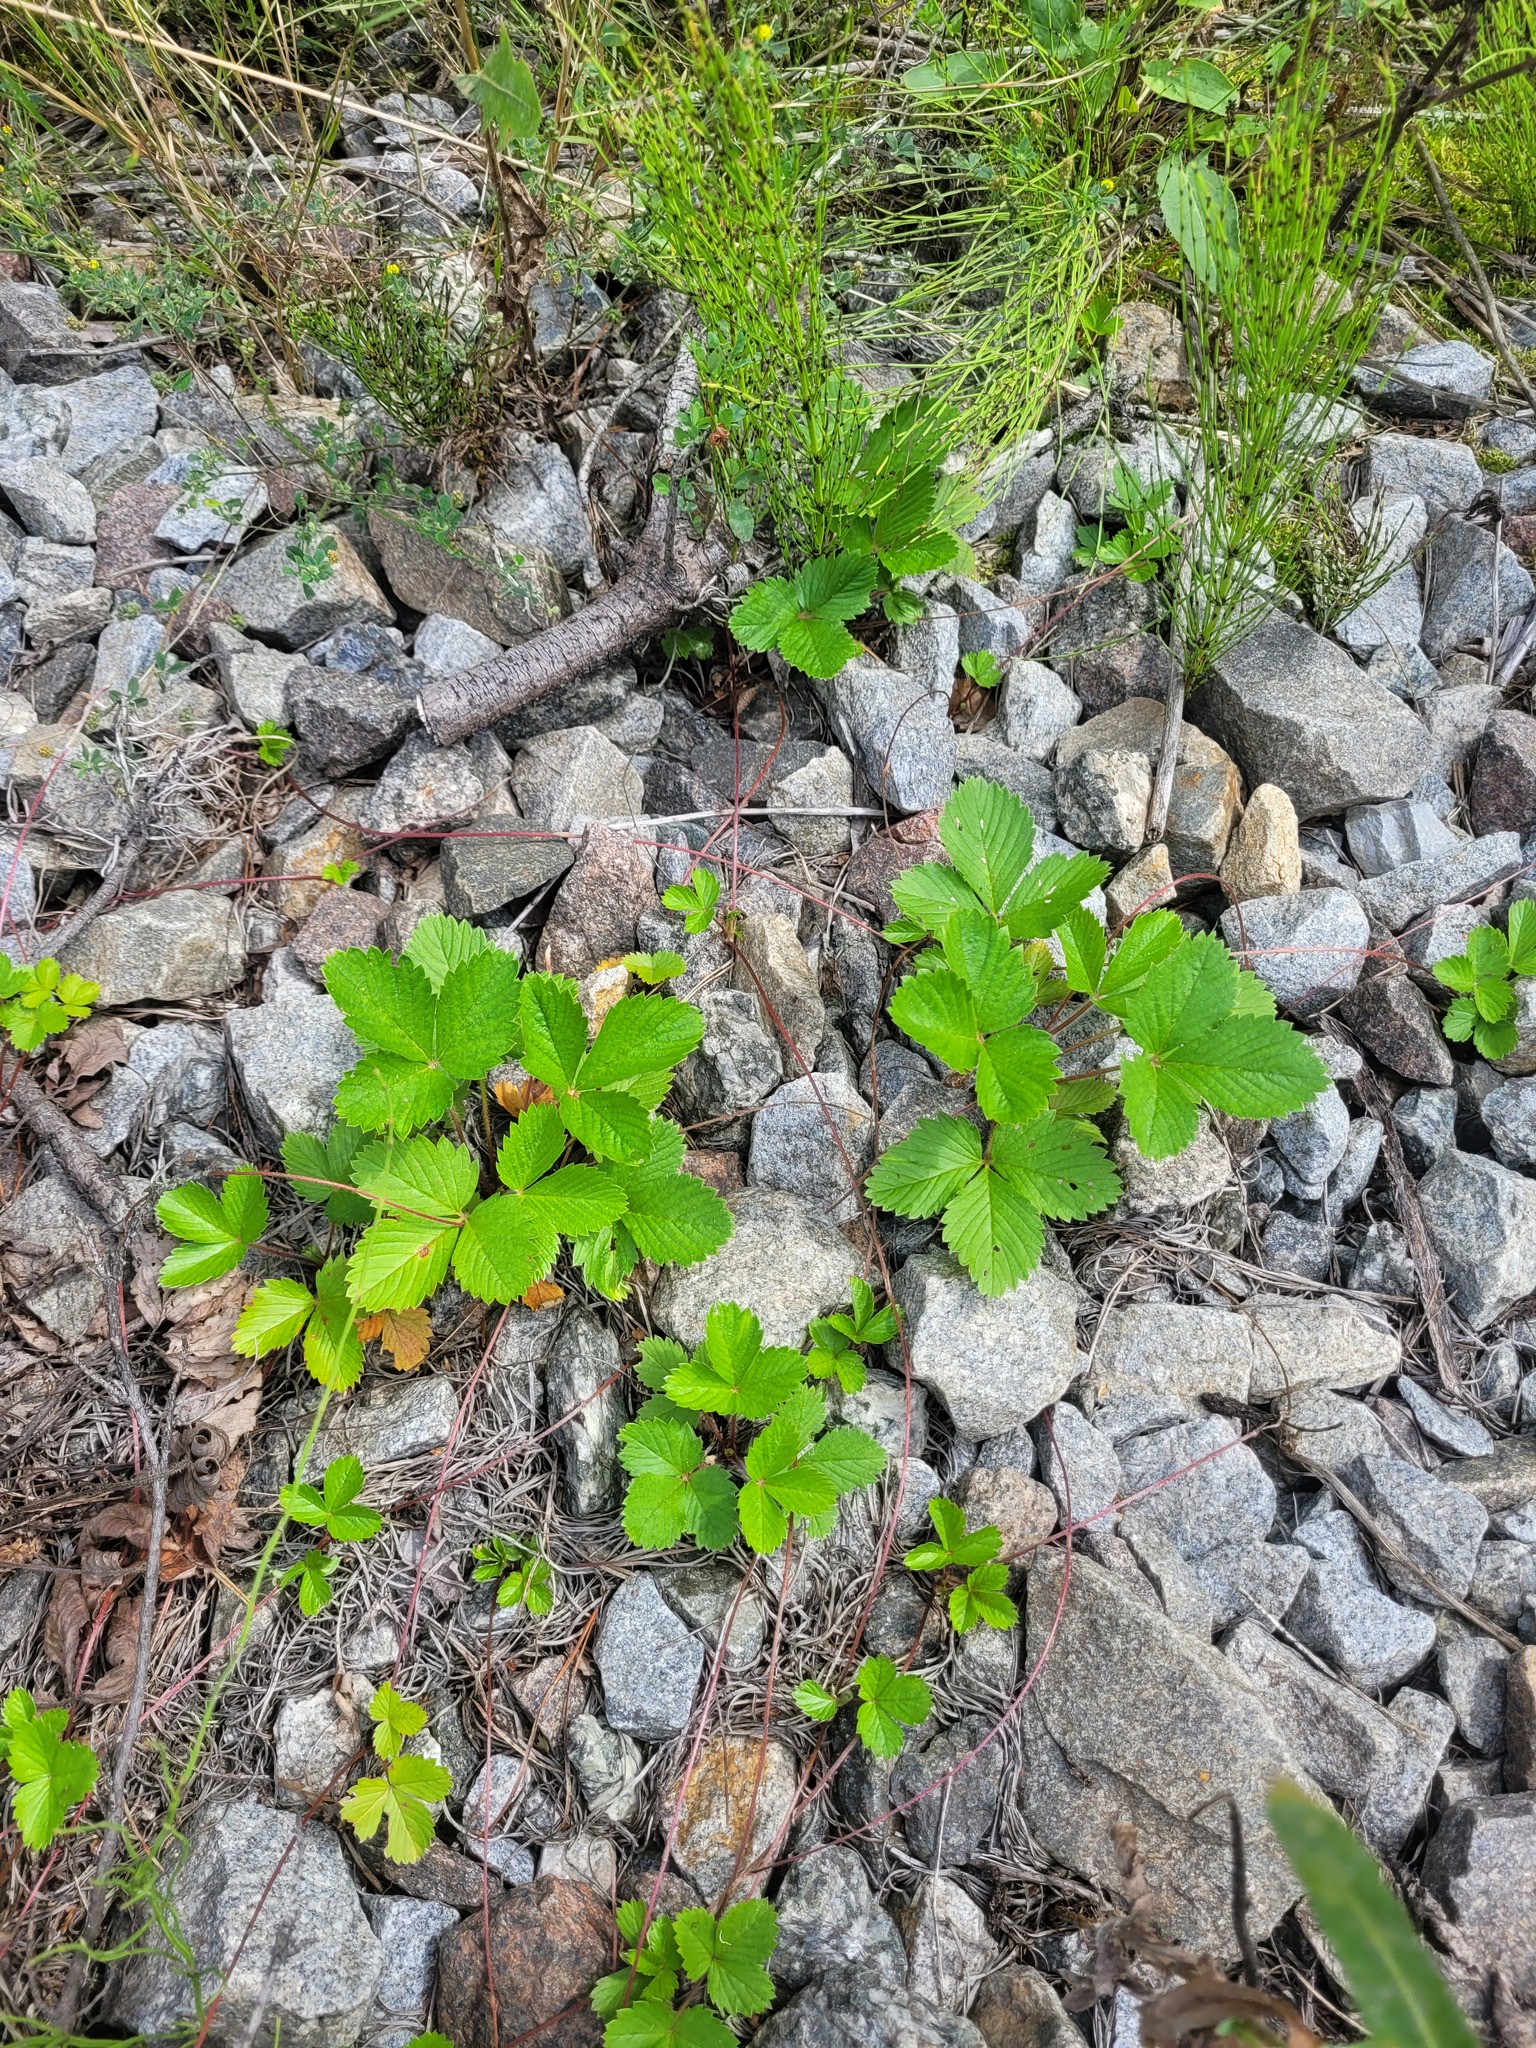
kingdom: Plantae
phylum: Tracheophyta
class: Magnoliopsida
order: Rosales
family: Rosaceae
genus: Fragaria
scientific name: Fragaria viridis
